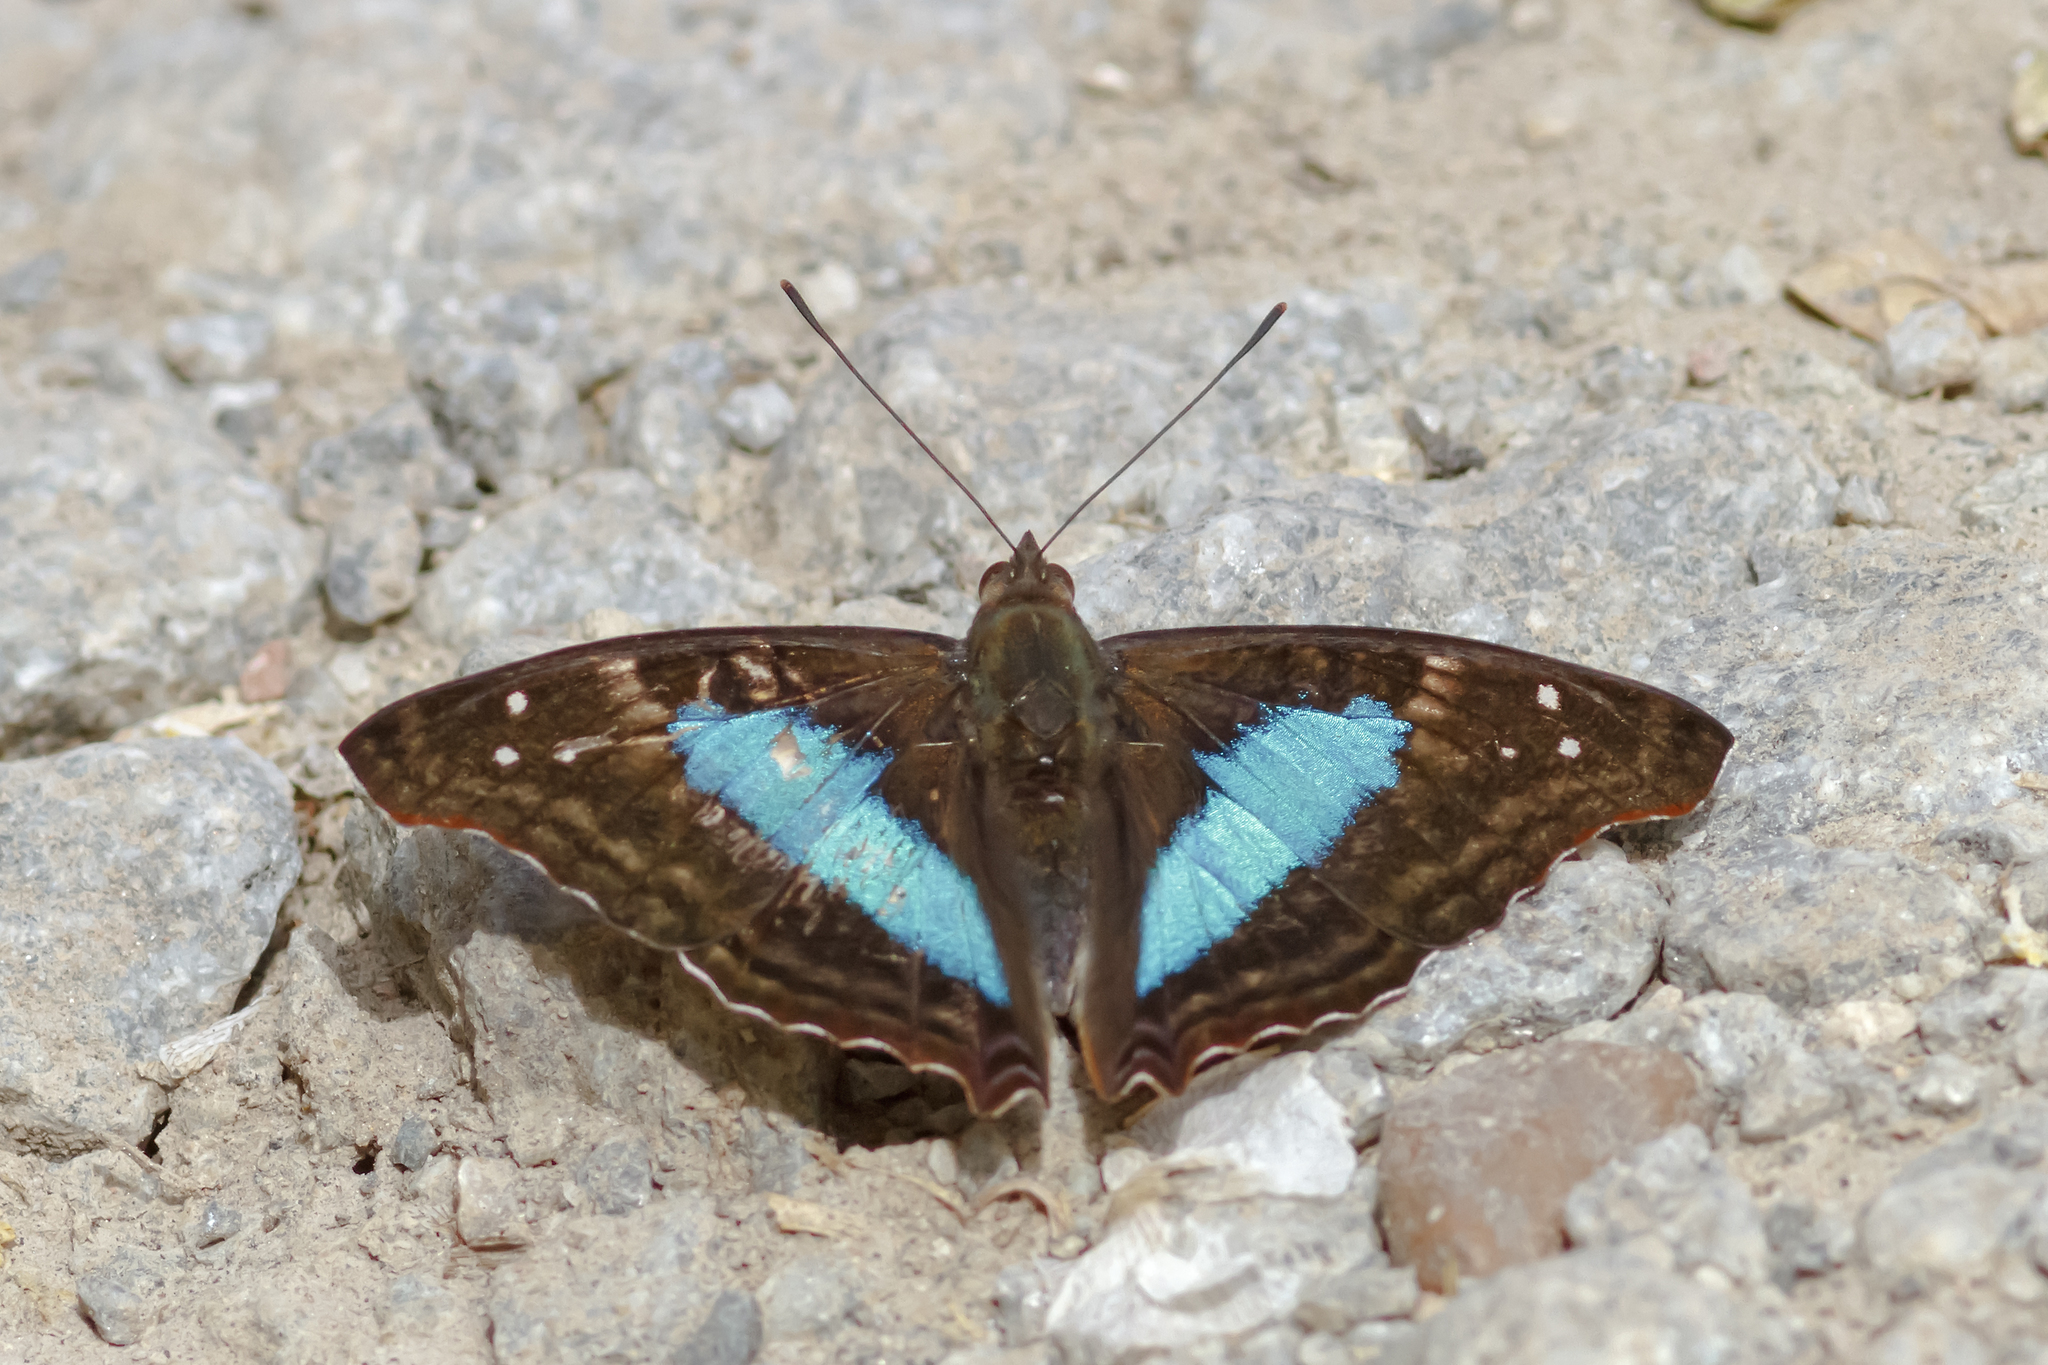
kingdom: Animalia
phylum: Arthropoda
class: Insecta
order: Lepidoptera
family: Nymphalidae
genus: Doxocopa
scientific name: Doxocopa laurentia
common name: Turquoise emperor
